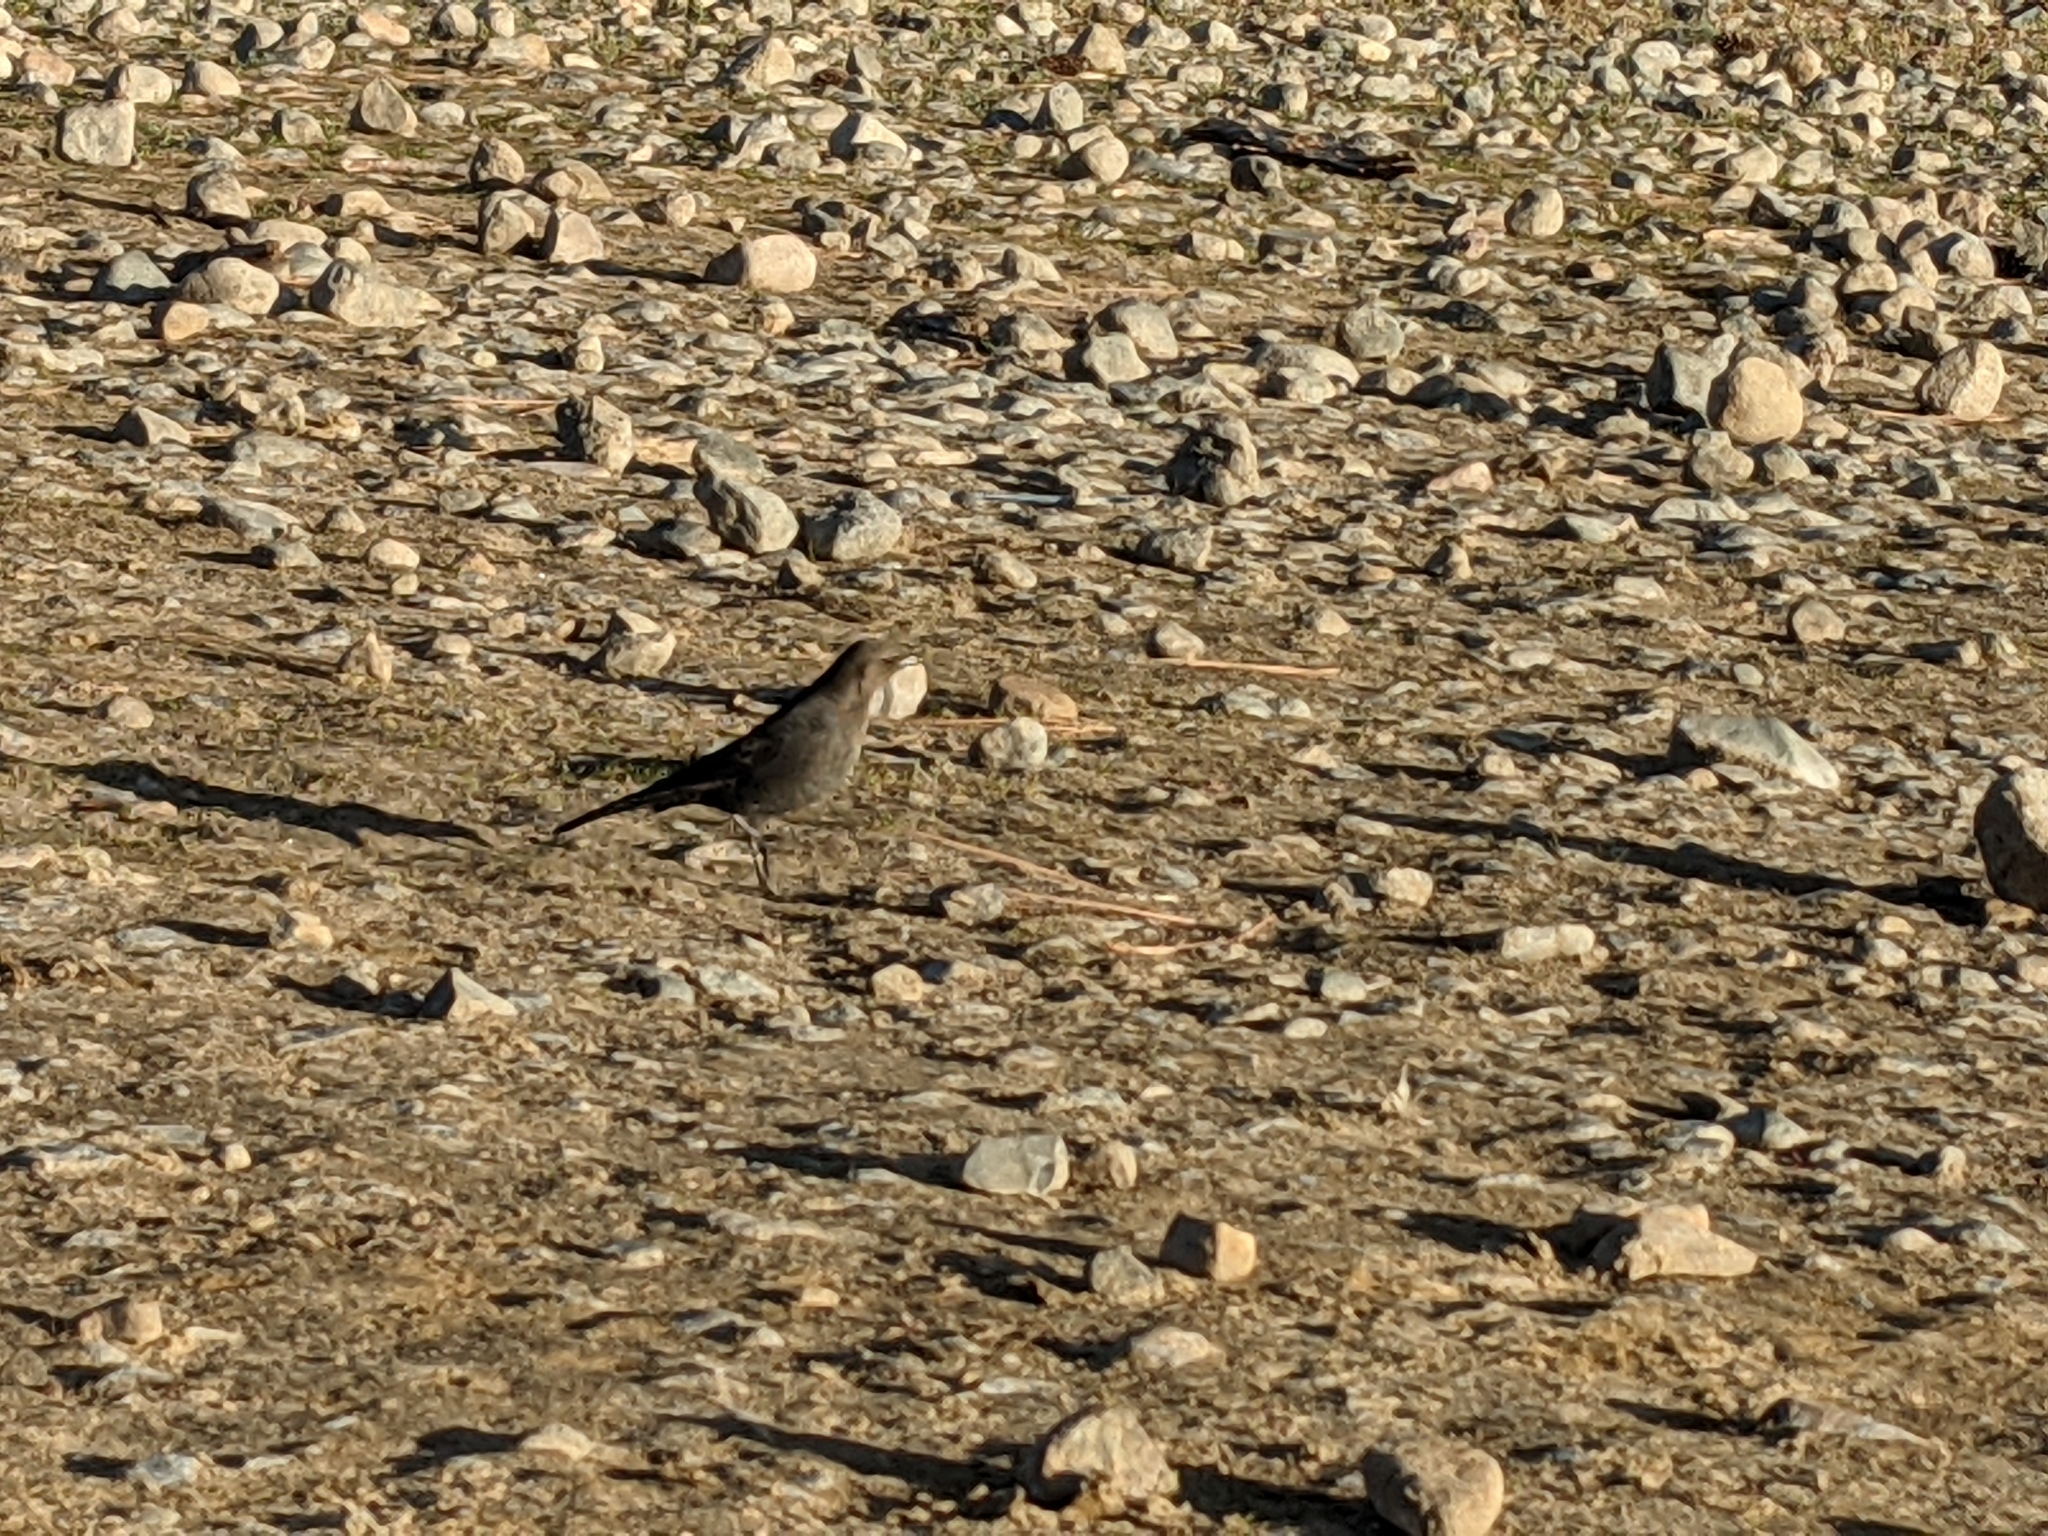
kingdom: Animalia
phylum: Chordata
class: Aves
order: Passeriformes
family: Icteridae
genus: Euphagus
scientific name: Euphagus cyanocephalus
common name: Brewer's blackbird
